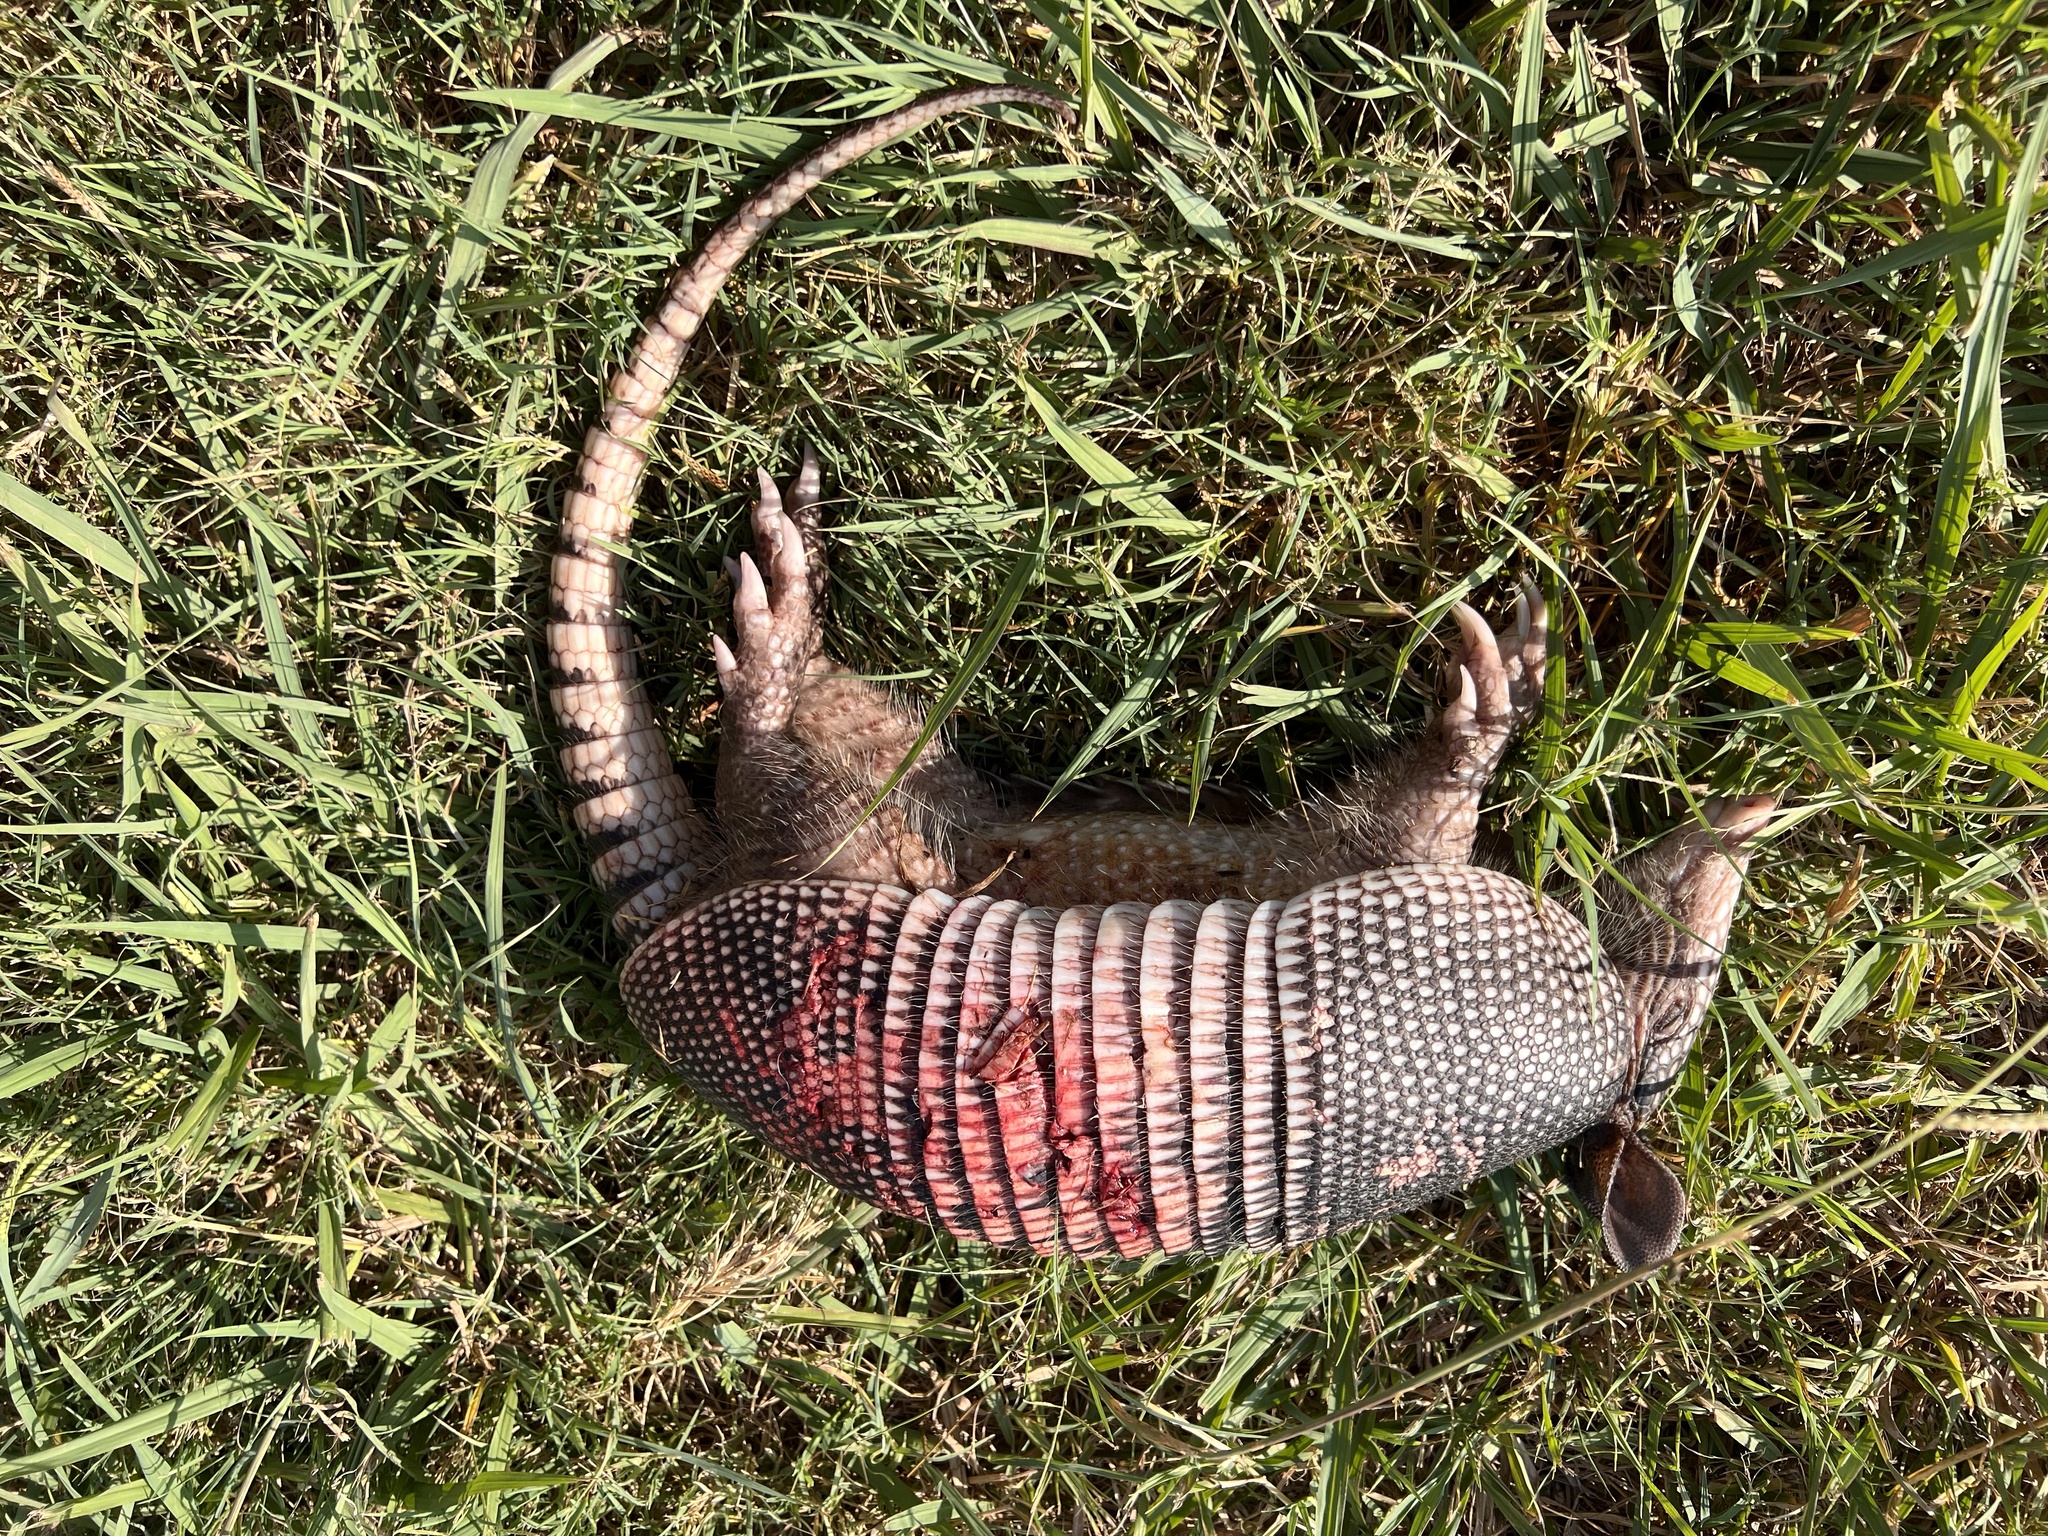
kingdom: Animalia
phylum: Chordata
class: Mammalia
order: Cingulata
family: Dasypodidae
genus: Dasypus
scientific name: Dasypus novemcinctus
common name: Nine-banded armadillo
